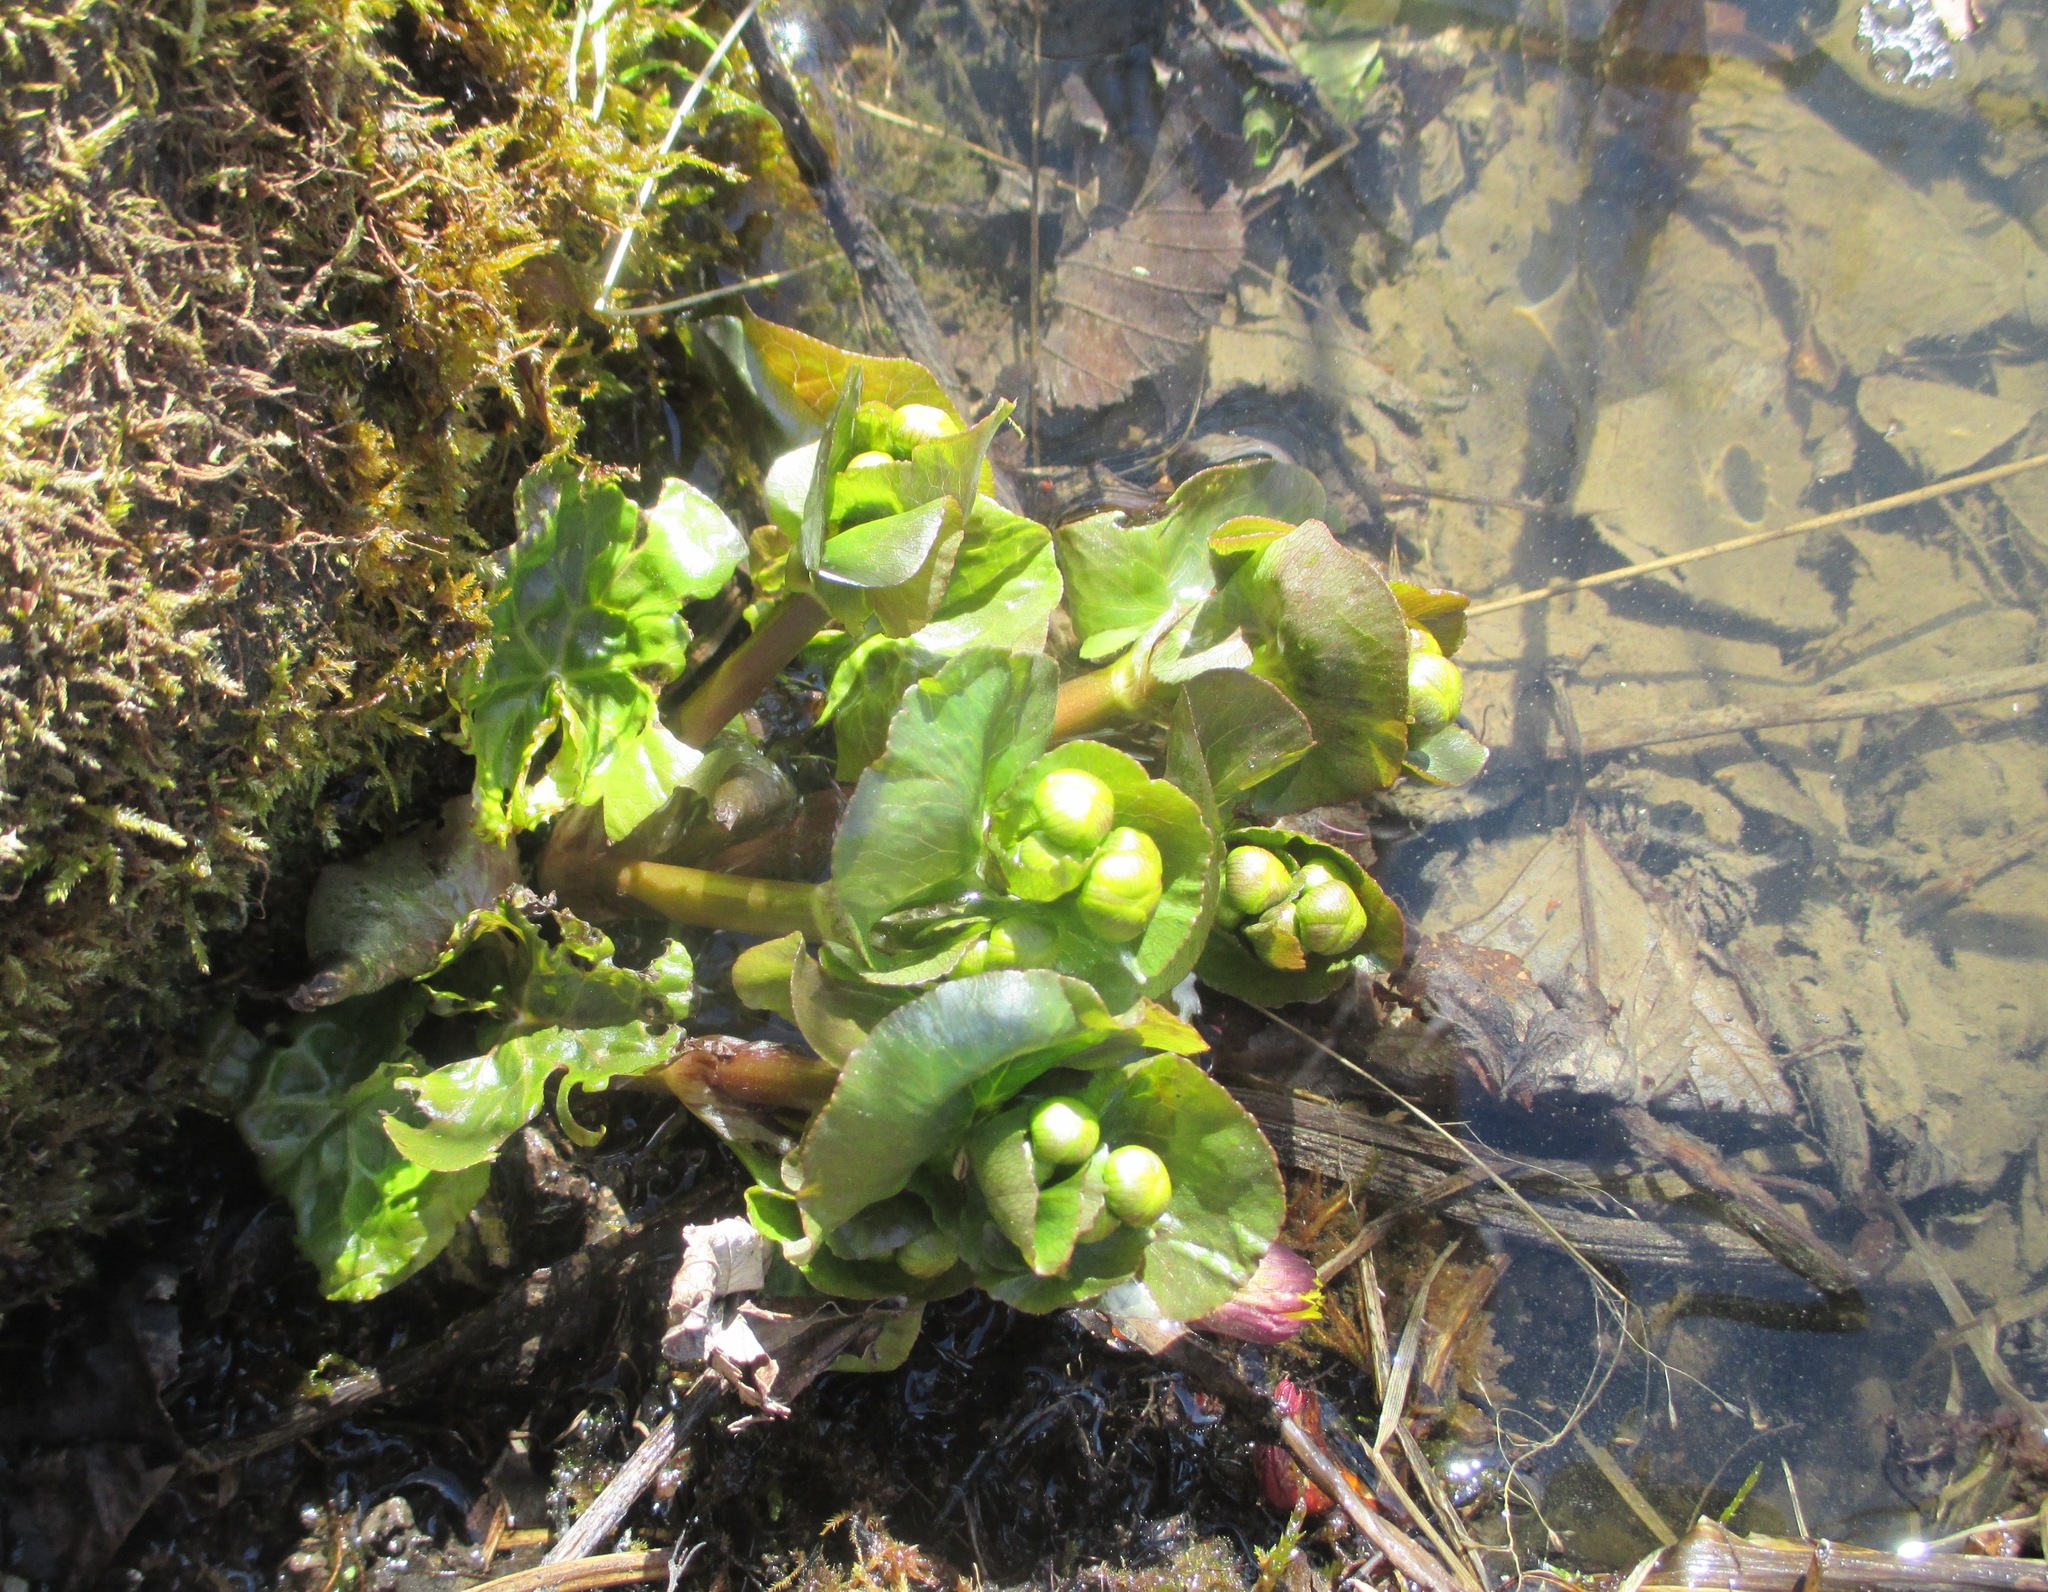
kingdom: Plantae
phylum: Tracheophyta
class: Magnoliopsida
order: Ranunculales
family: Ranunculaceae
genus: Caltha
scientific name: Caltha palustris
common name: Marsh marigold
